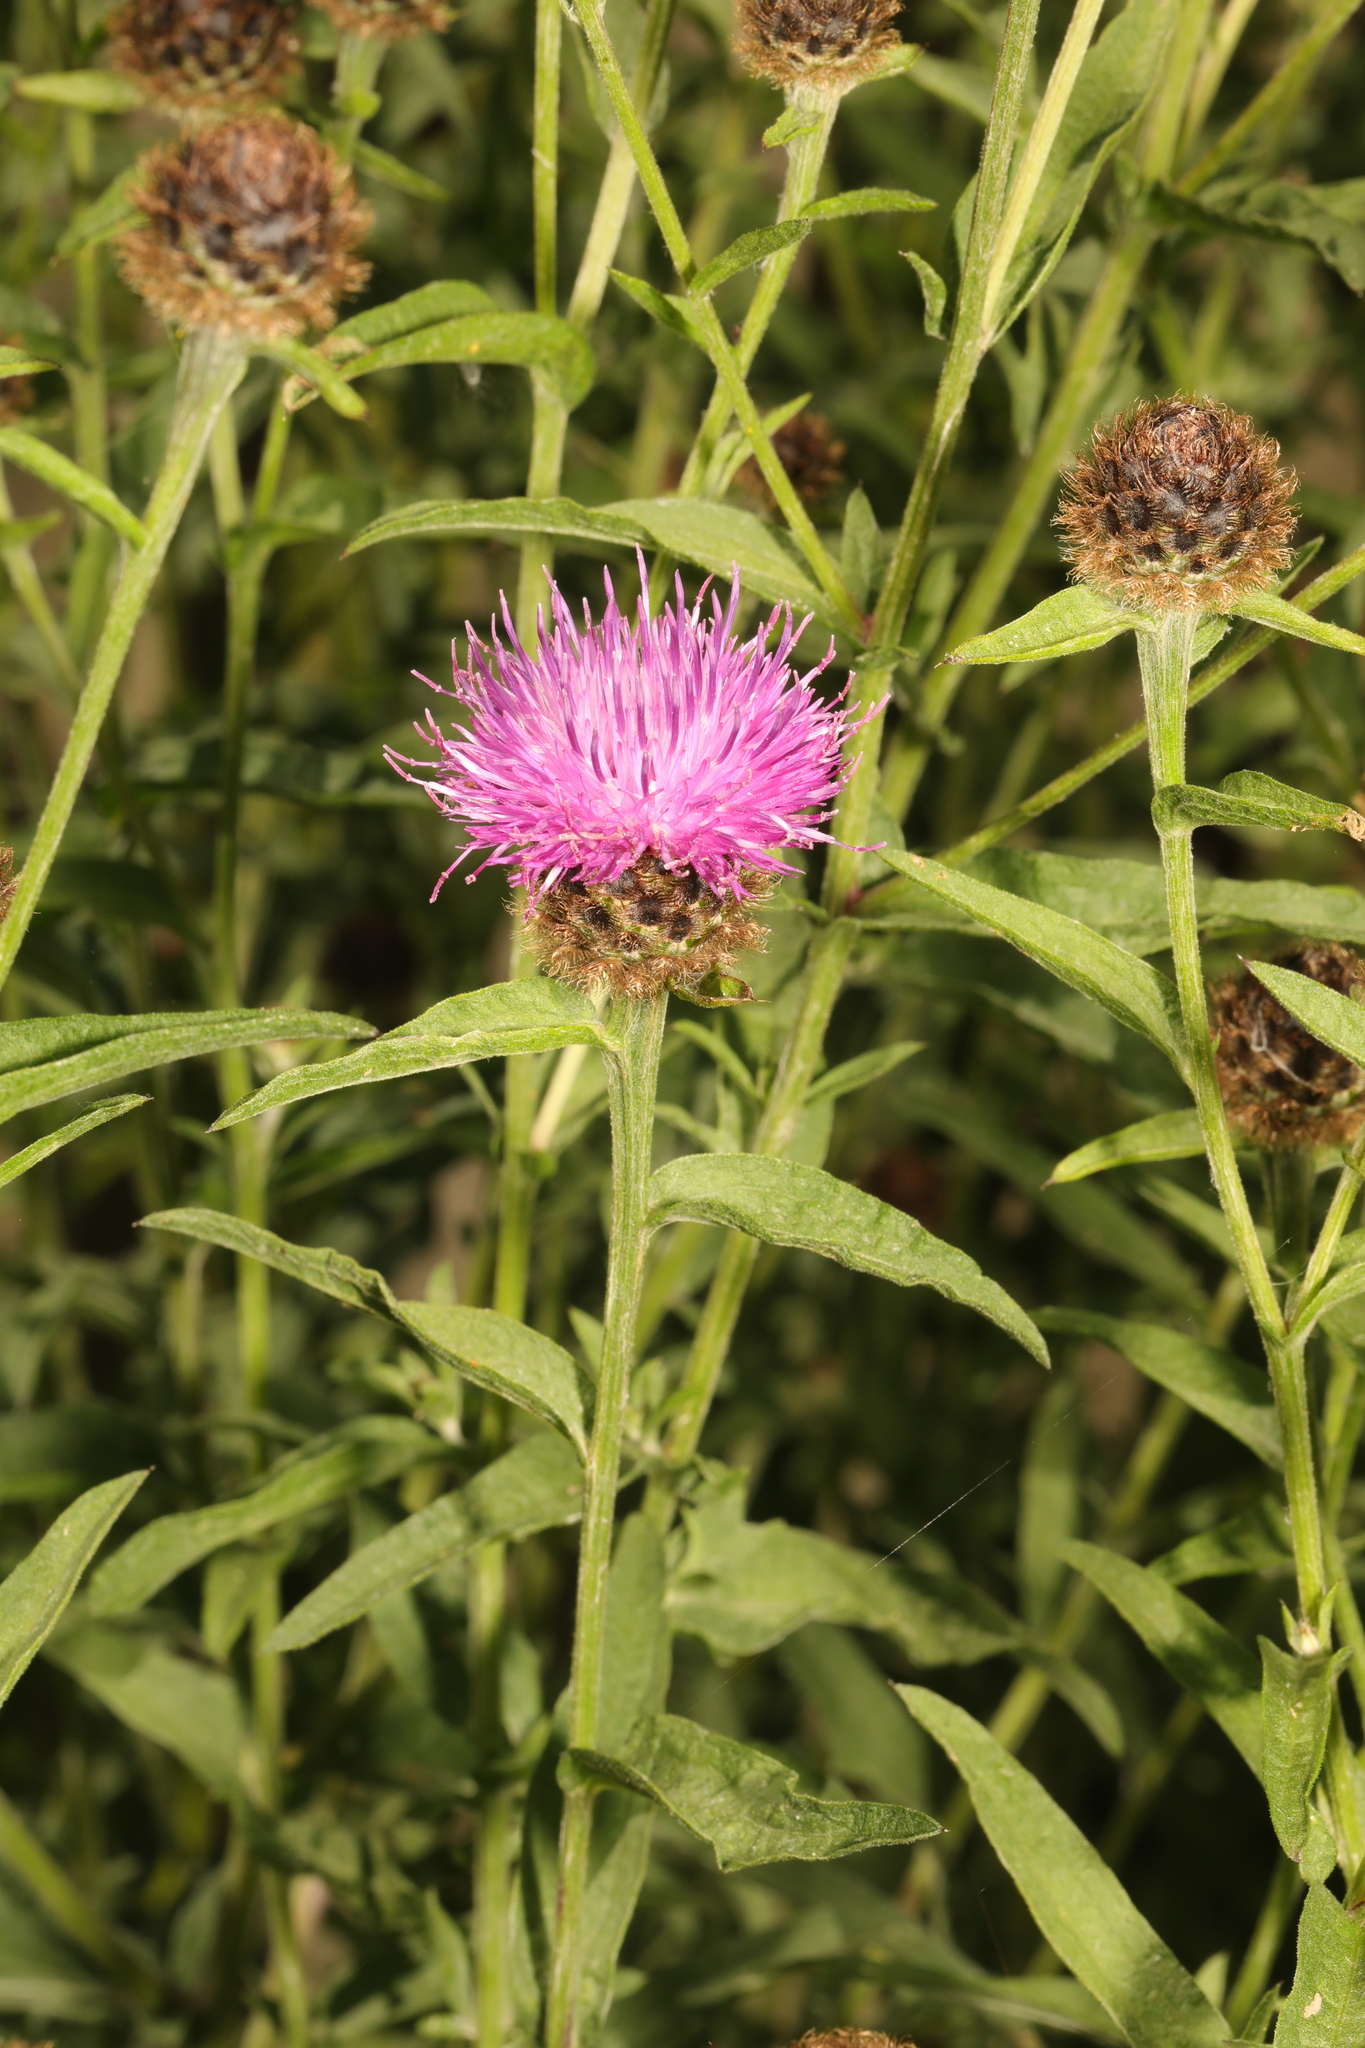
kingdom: Plantae
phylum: Tracheophyta
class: Magnoliopsida
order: Asterales
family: Asteraceae
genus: Centaurea
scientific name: Centaurea nigra
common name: Lesser knapweed
